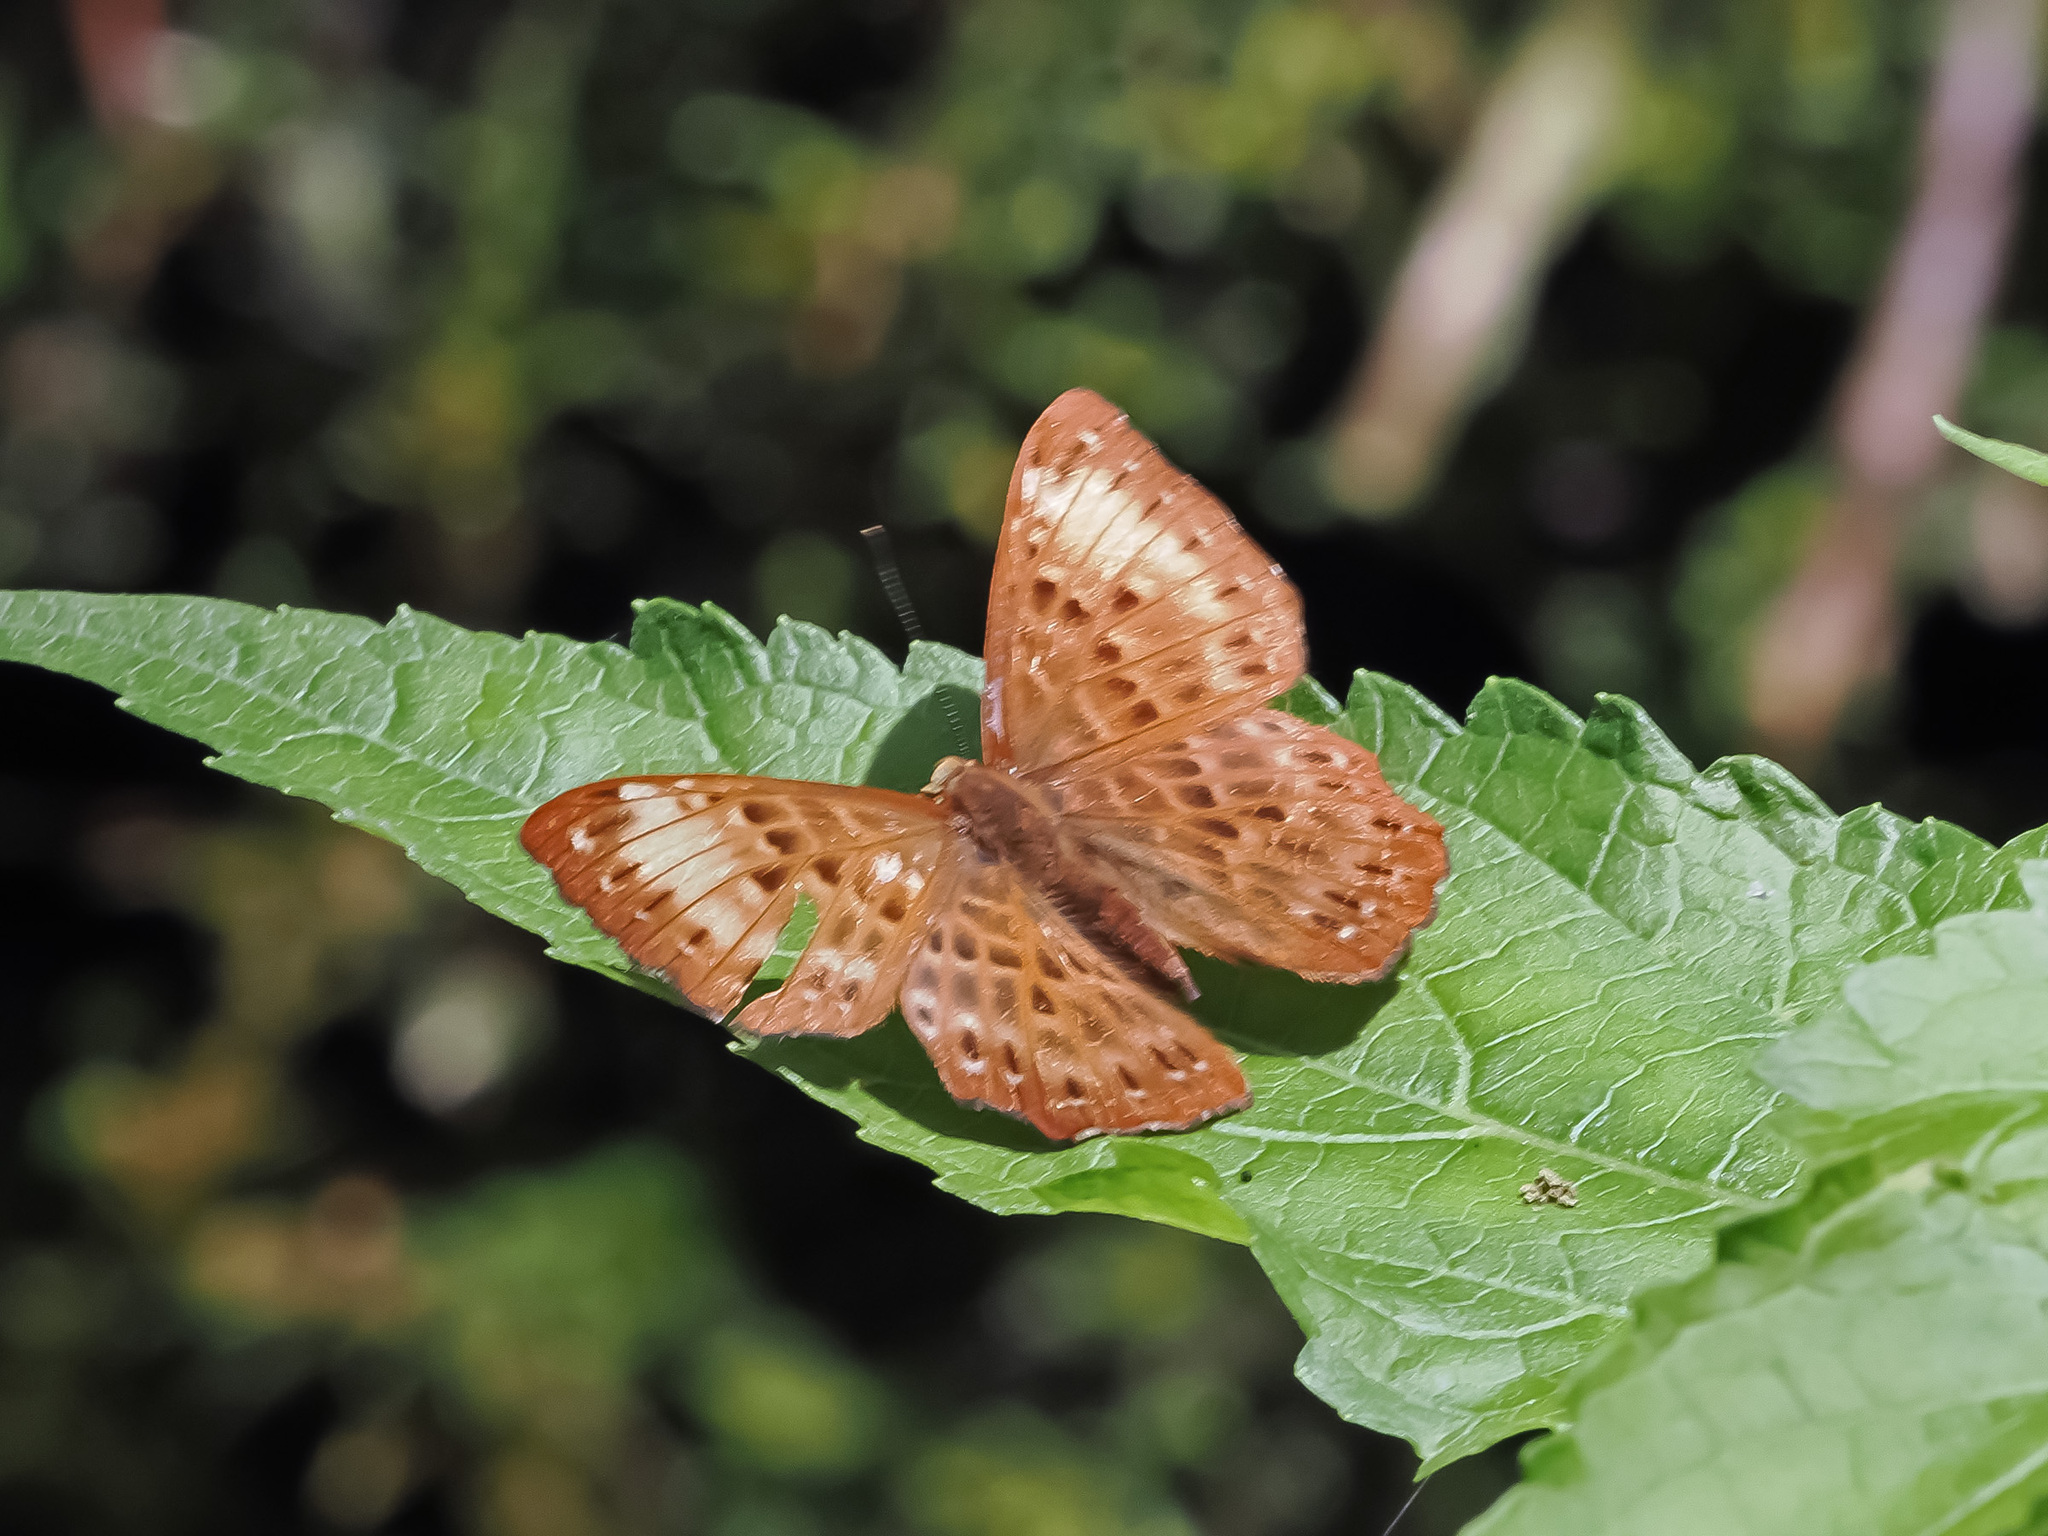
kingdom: Animalia
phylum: Arthropoda
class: Insecta
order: Lepidoptera
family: Riodinidae
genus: Zemeros
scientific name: Zemeros flegyas
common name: Punchinello
